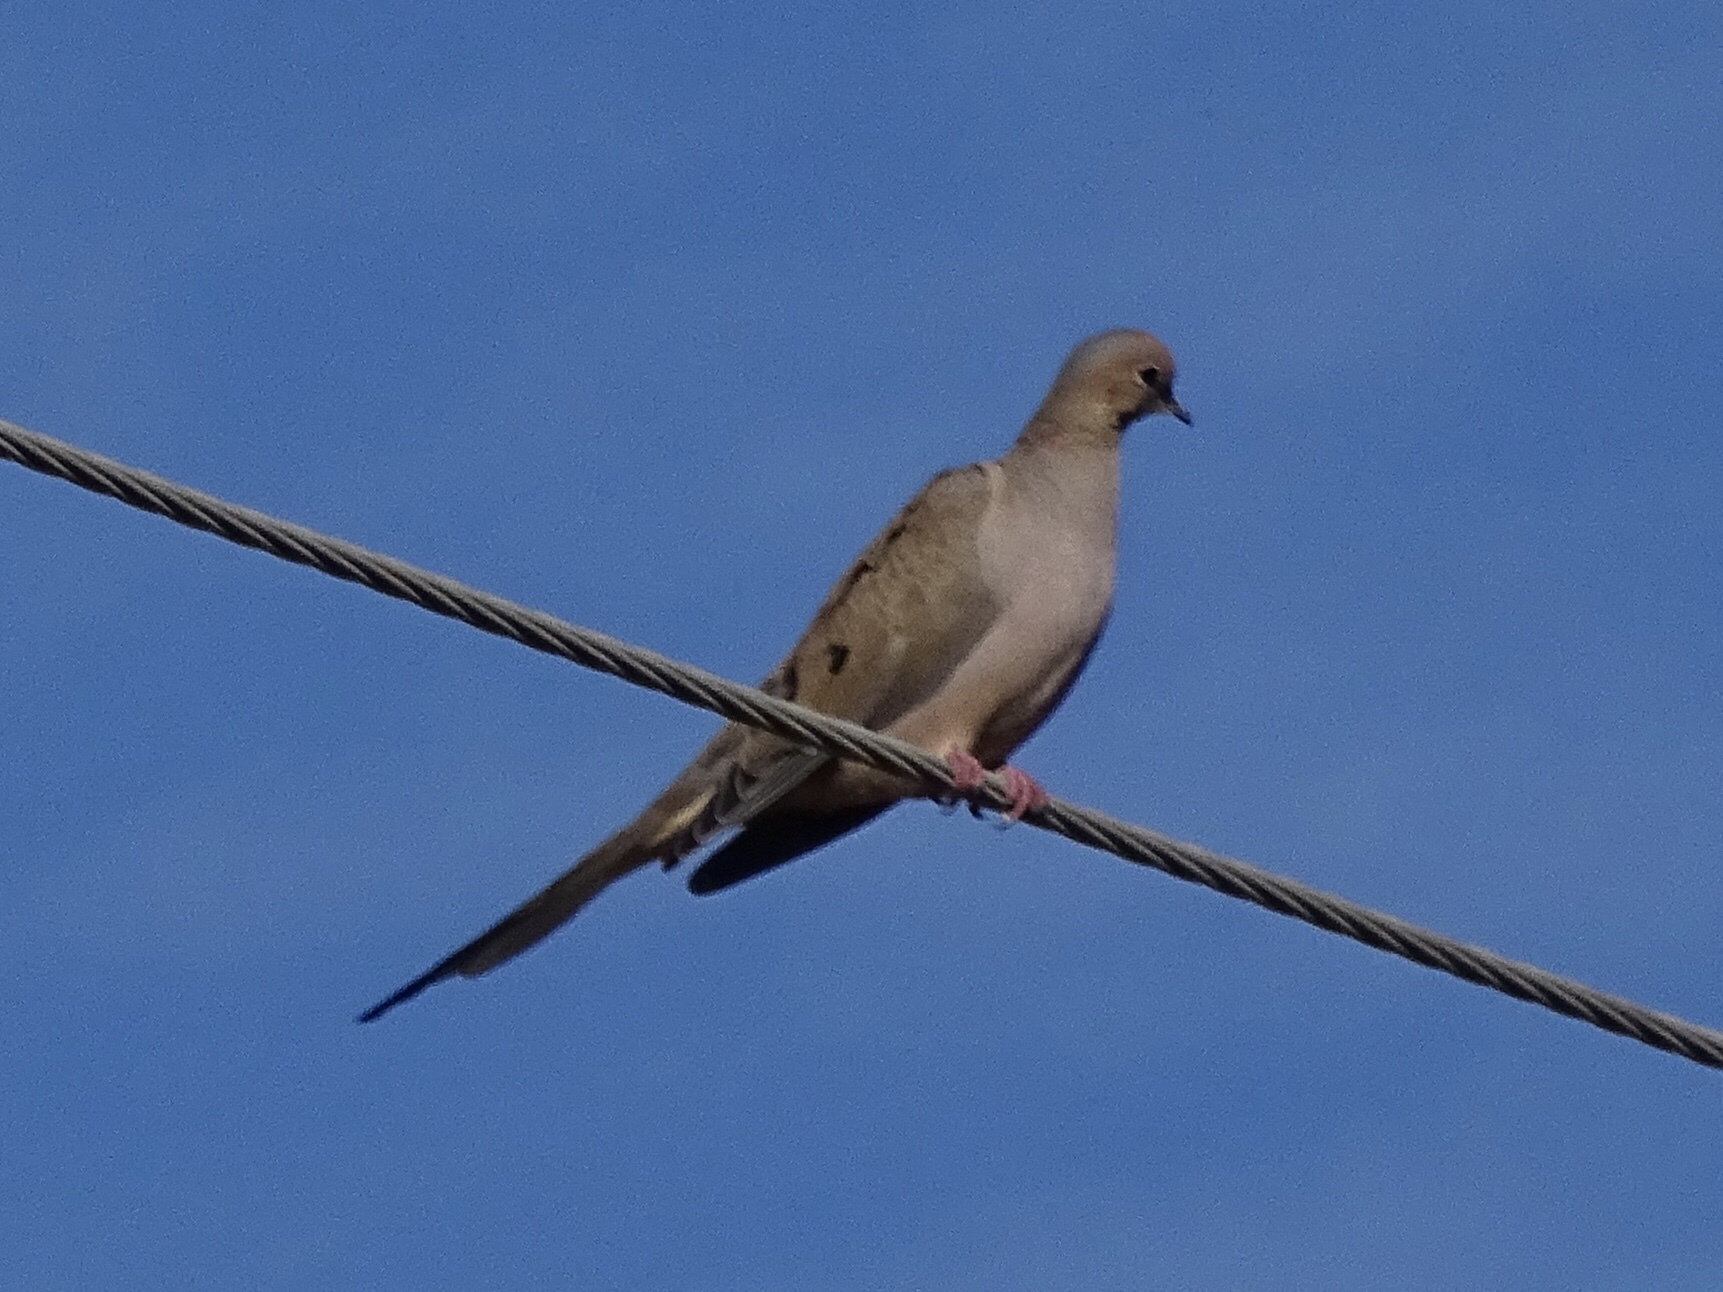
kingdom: Animalia
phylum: Chordata
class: Aves
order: Columbiformes
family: Columbidae
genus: Zenaida
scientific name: Zenaida macroura
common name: Mourning dove
